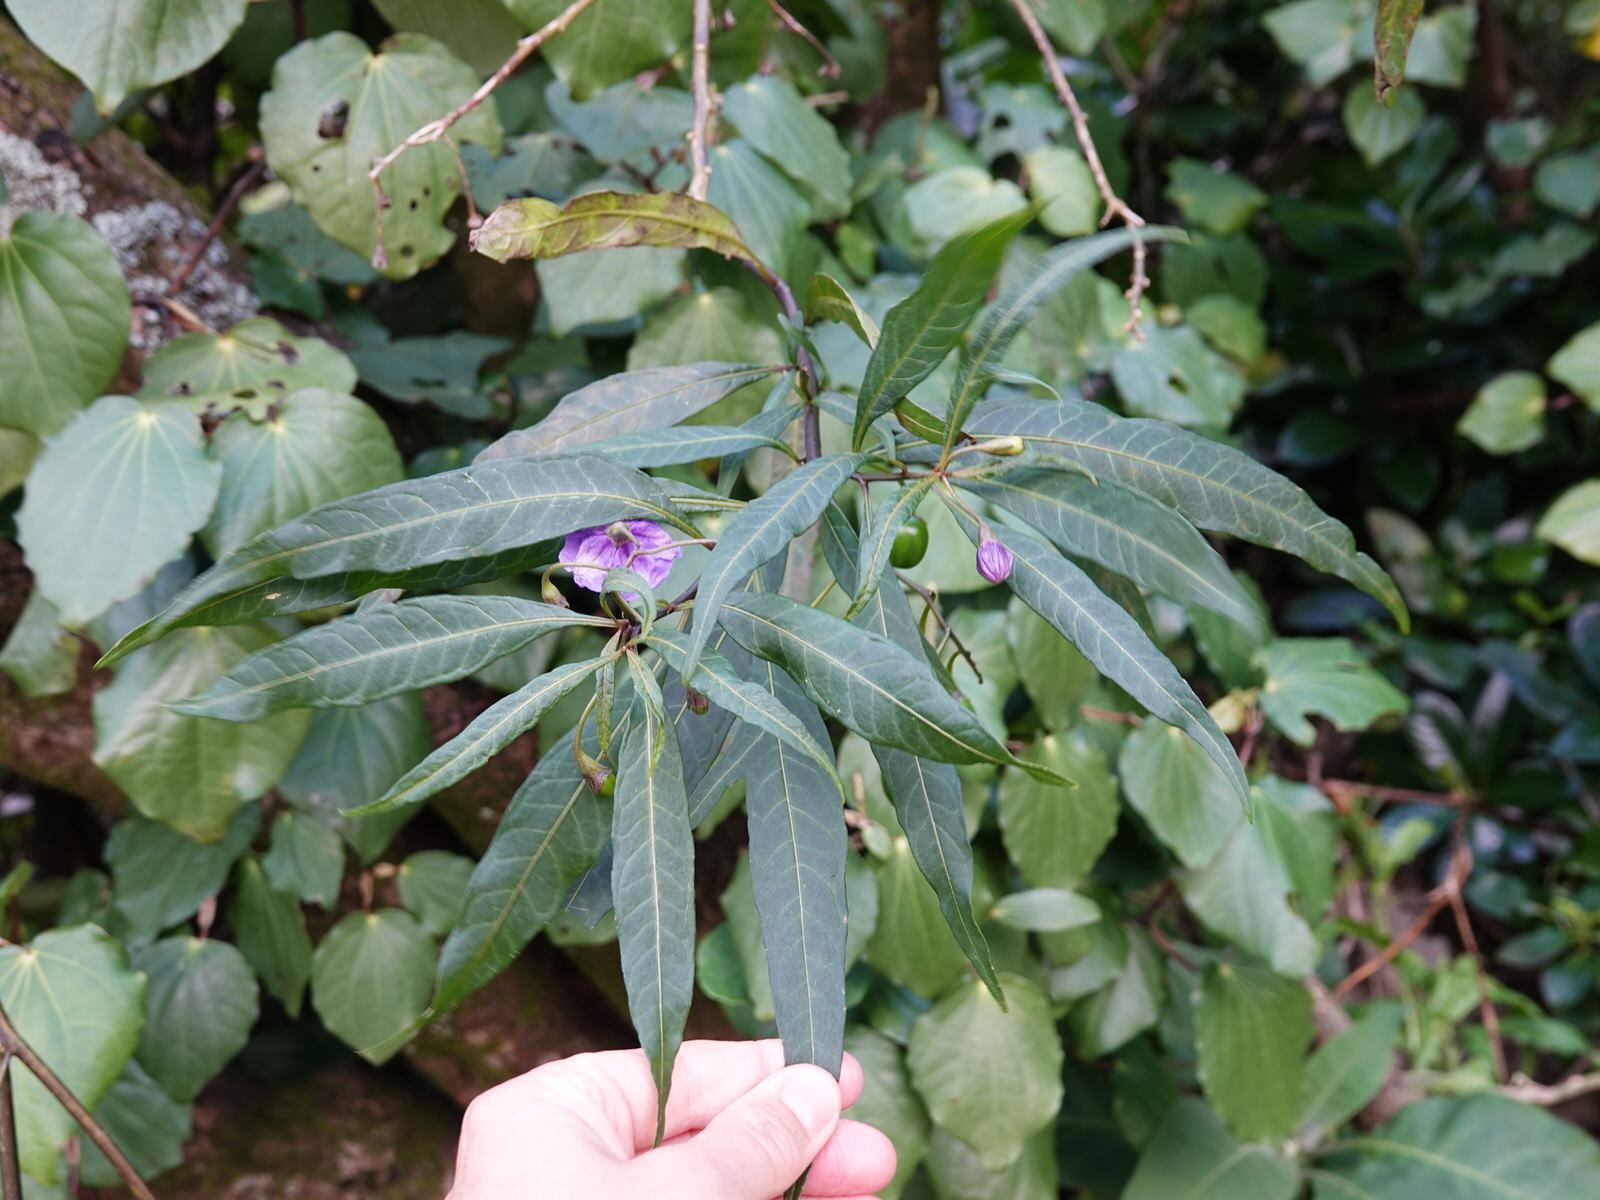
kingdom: Plantae
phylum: Tracheophyta
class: Magnoliopsida
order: Solanales
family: Solanaceae
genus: Solanum
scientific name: Solanum laciniatum
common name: Kangaroo-apple
